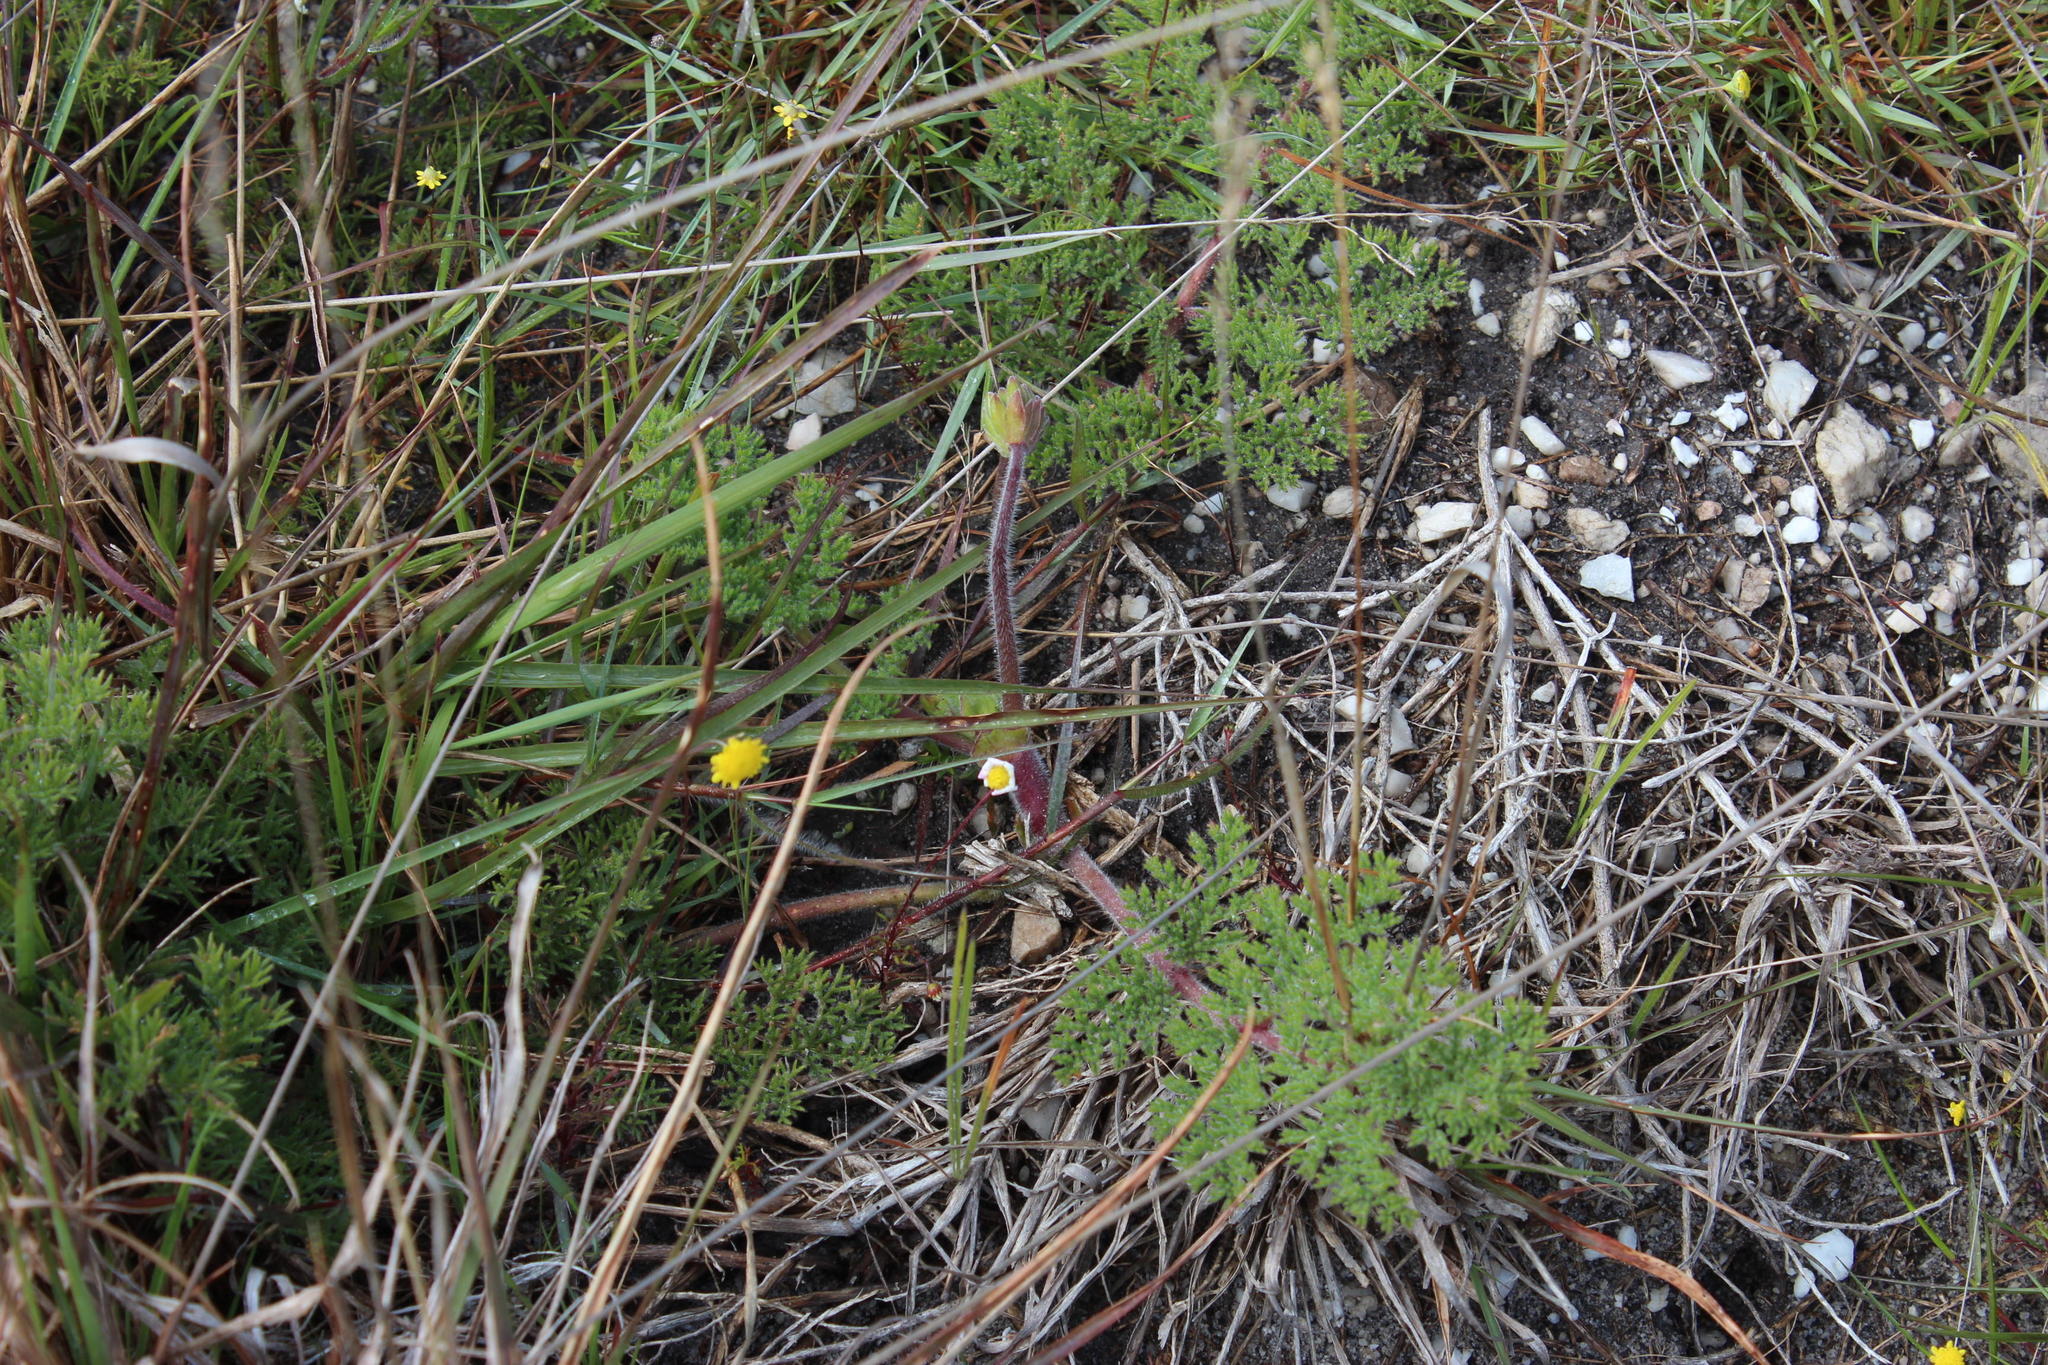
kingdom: Plantae
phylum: Tracheophyta
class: Magnoliopsida
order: Geraniales
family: Geraniaceae
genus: Pelargonium
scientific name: Pelargonium triste
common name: Night-scent pelargonium
